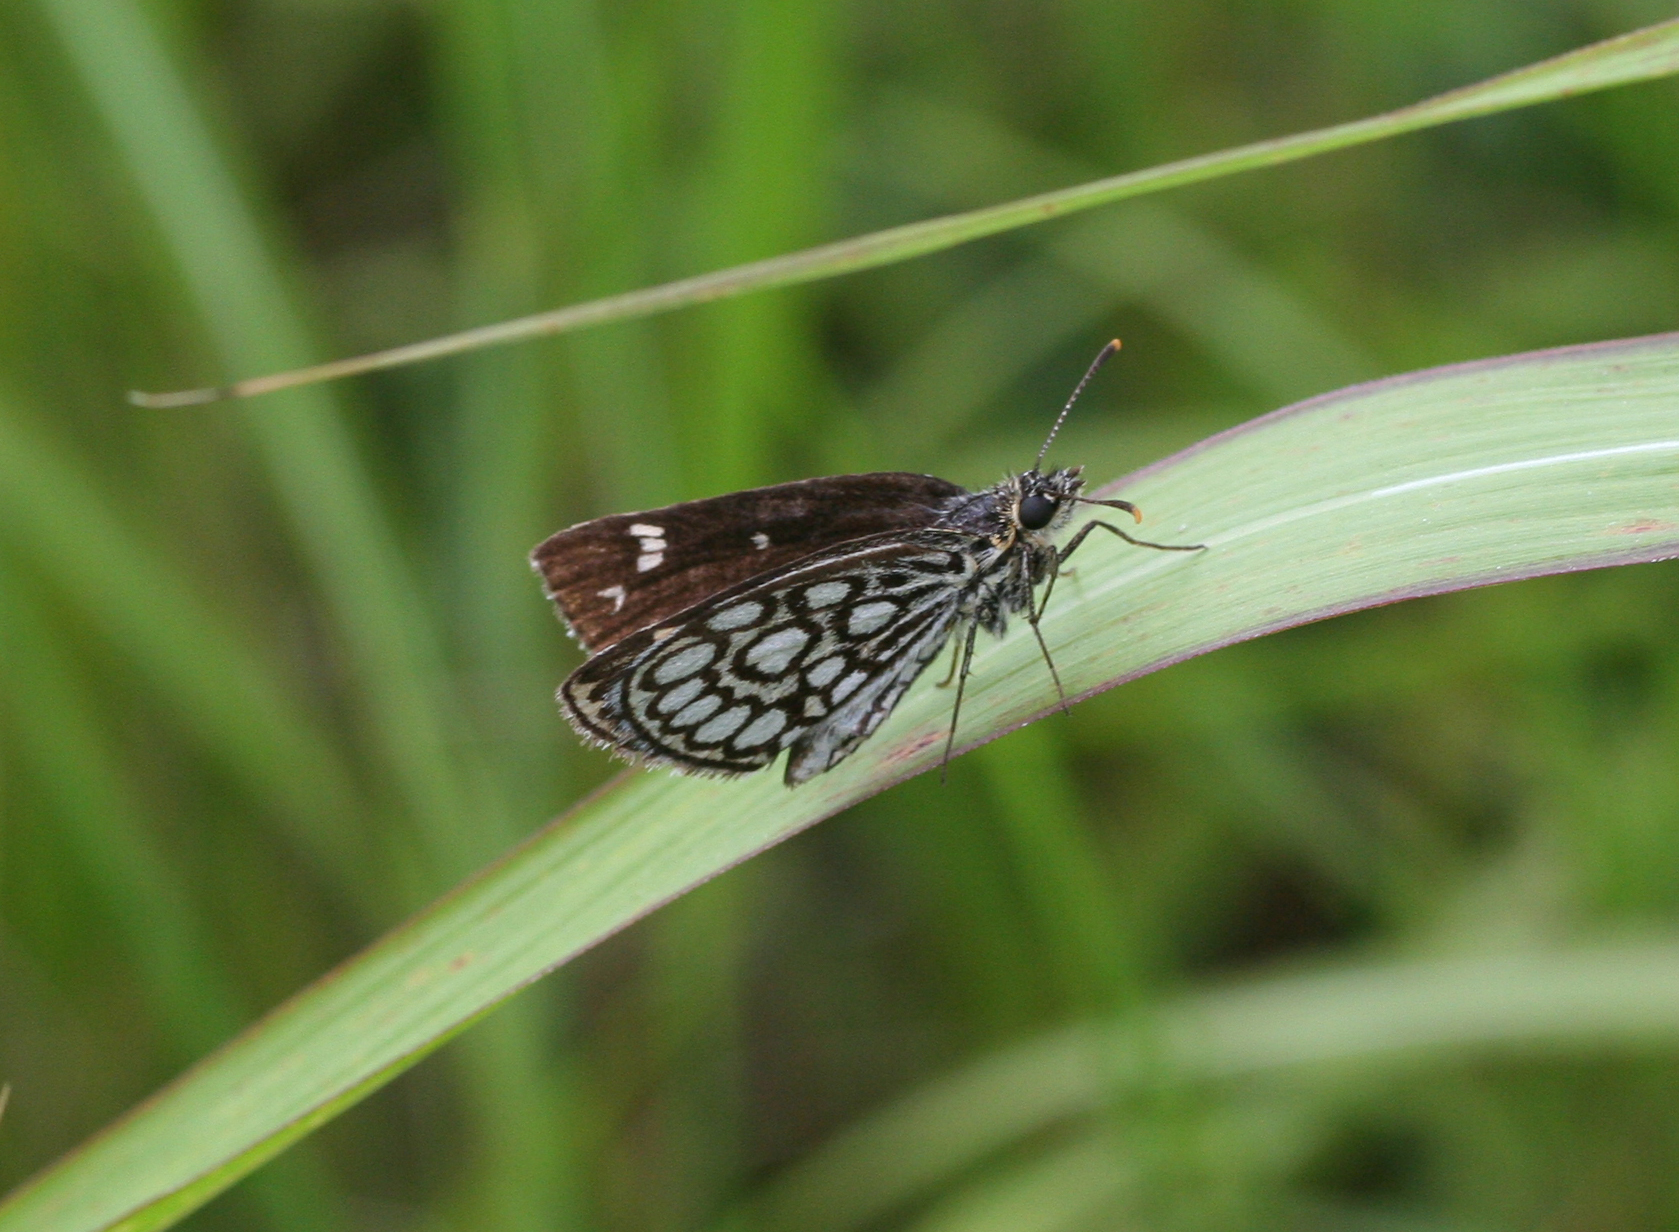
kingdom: Animalia
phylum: Arthropoda
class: Insecta
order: Lepidoptera
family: Hesperiidae
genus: Heteropterus
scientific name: Heteropterus morpheus
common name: Large chequered skipper
